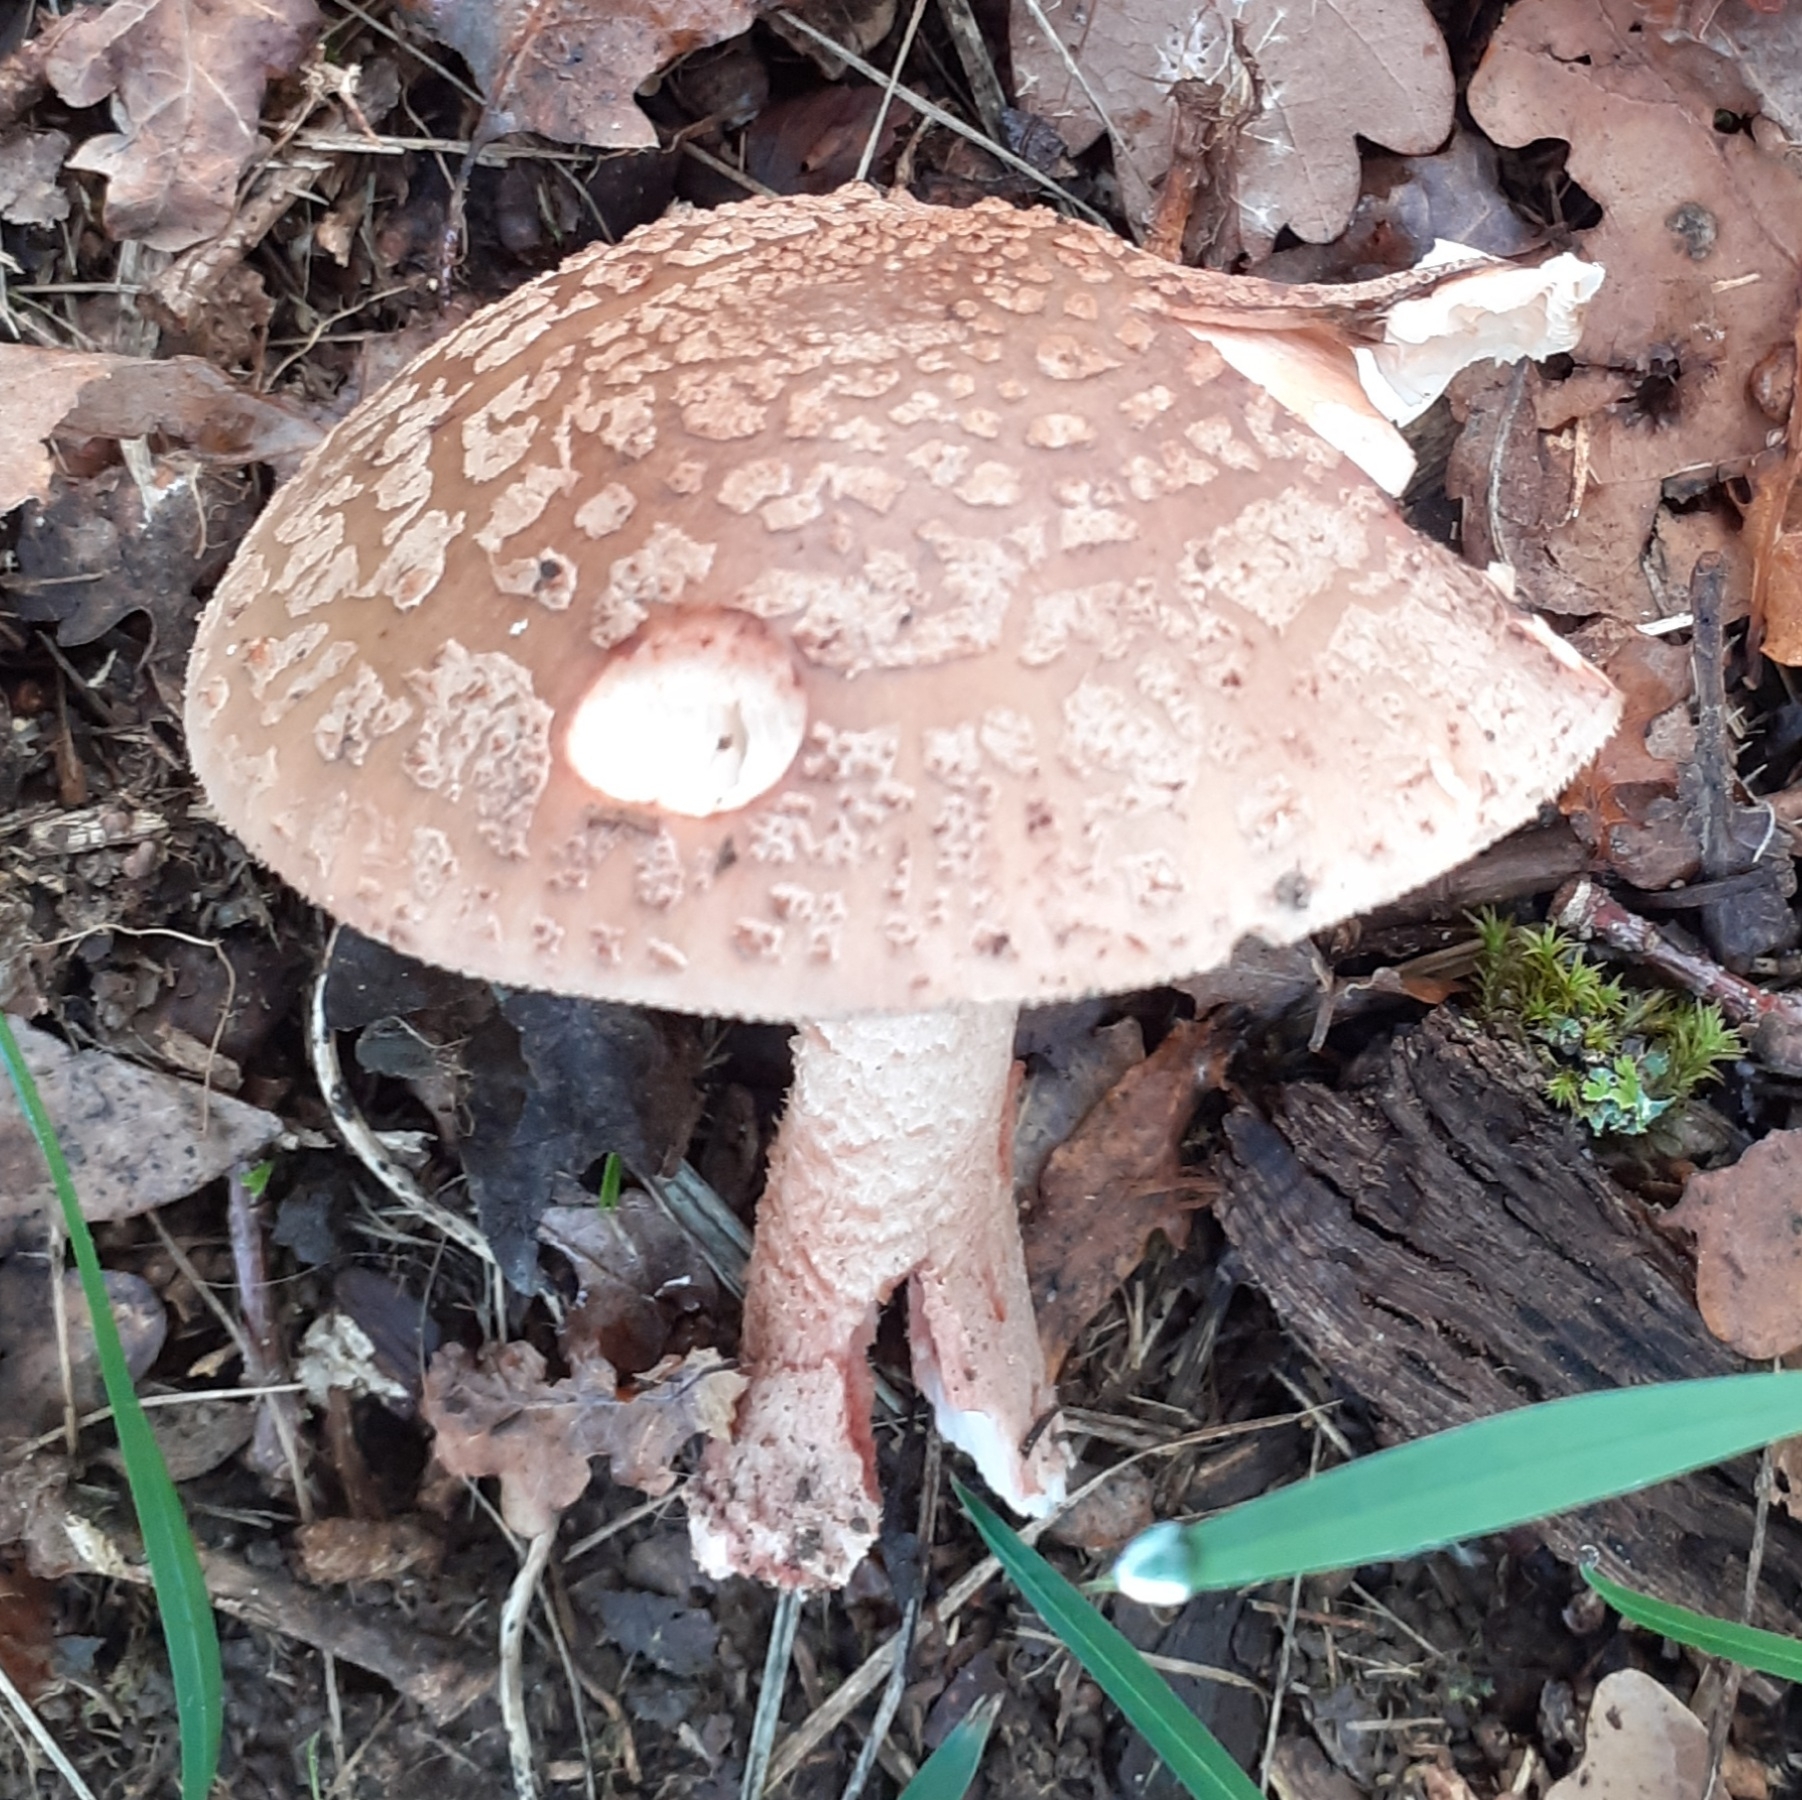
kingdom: Fungi
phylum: Basidiomycota
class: Agaricomycetes
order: Agaricales
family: Amanitaceae
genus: Amanita
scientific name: Amanita rubescens
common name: Blusher
